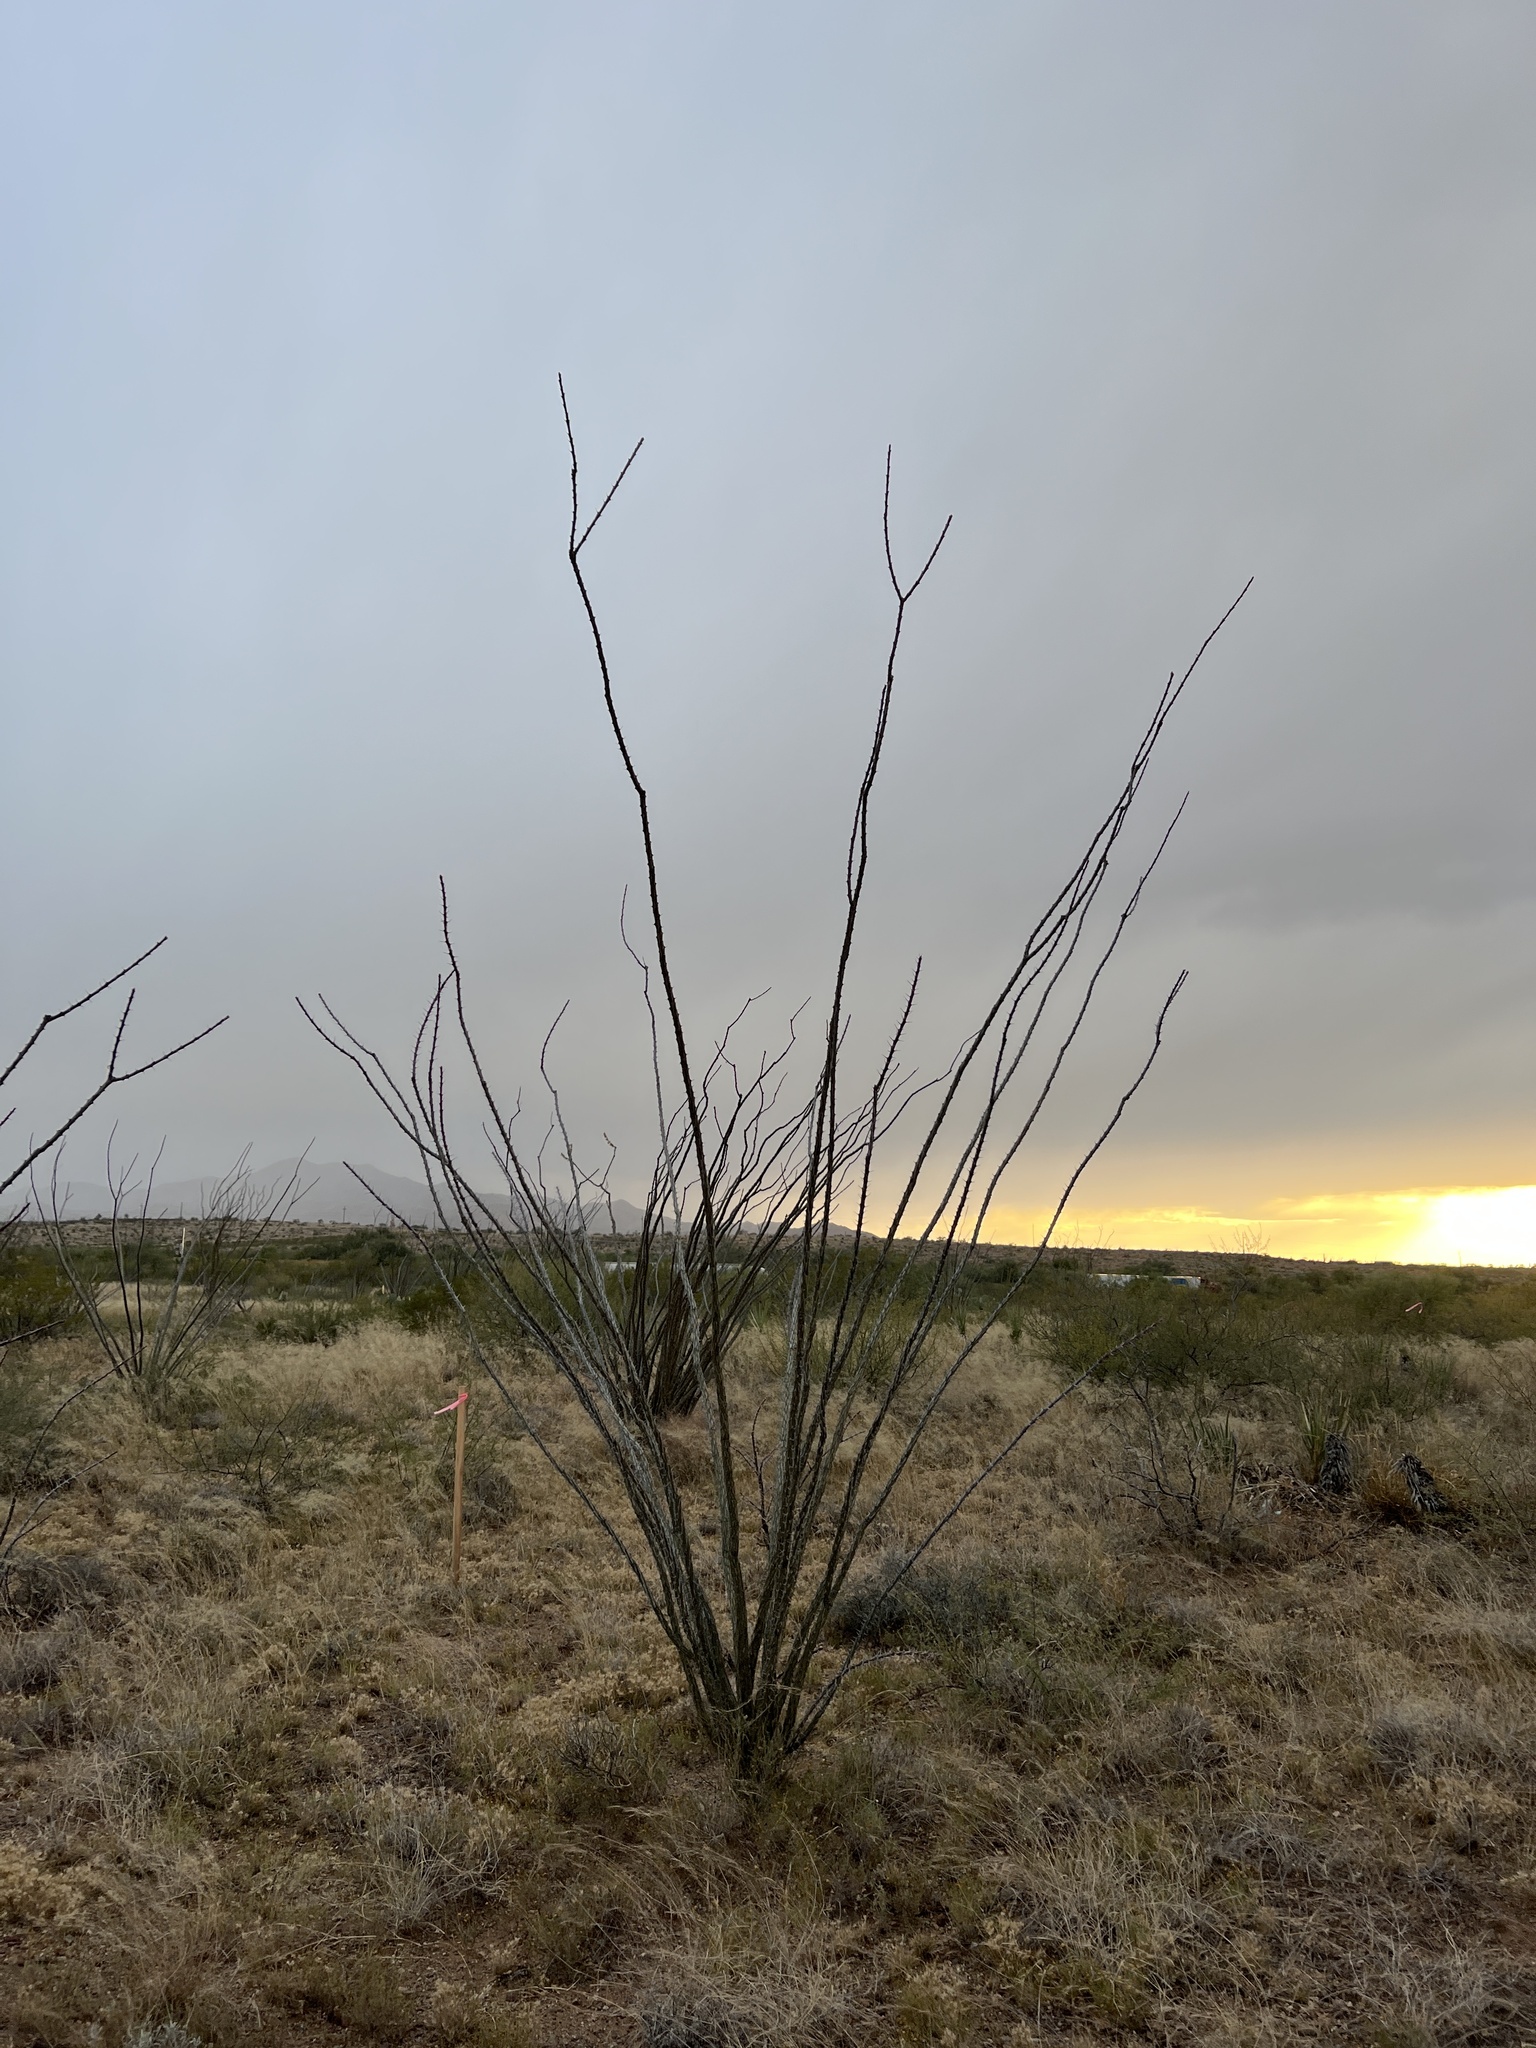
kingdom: Plantae
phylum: Tracheophyta
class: Magnoliopsida
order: Ericales
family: Fouquieriaceae
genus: Fouquieria
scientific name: Fouquieria splendens
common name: Vine-cactus
